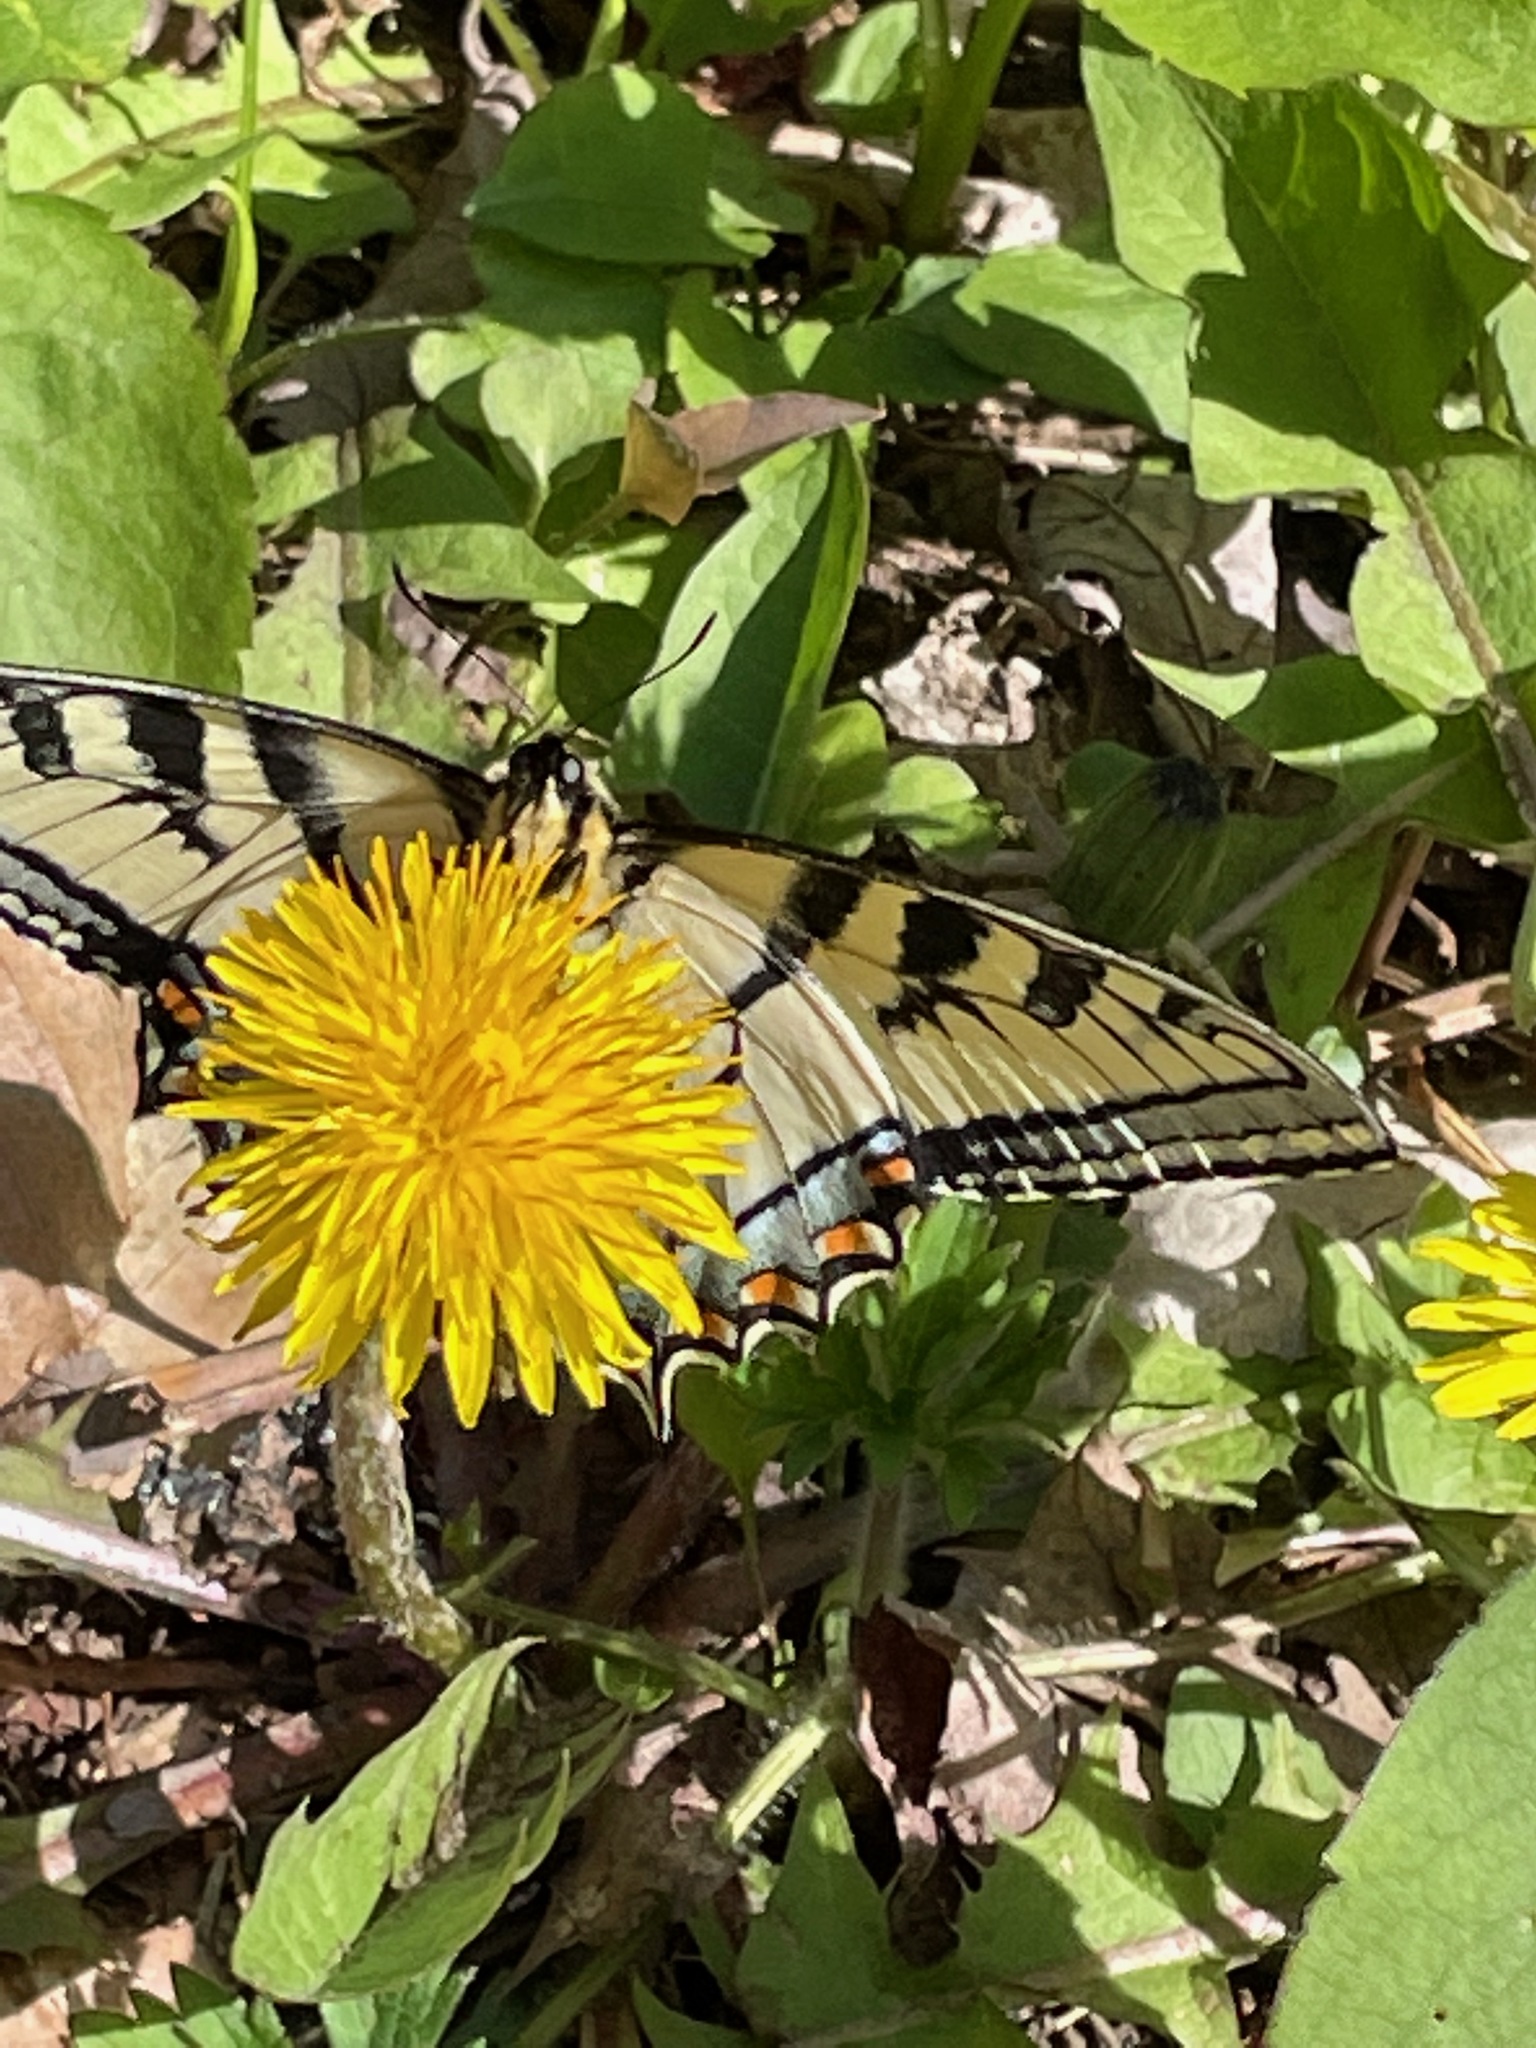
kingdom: Animalia
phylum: Arthropoda
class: Insecta
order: Lepidoptera
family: Papilionidae
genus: Papilio
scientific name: Papilio canadensis
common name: Canadian tiger swallowtail
